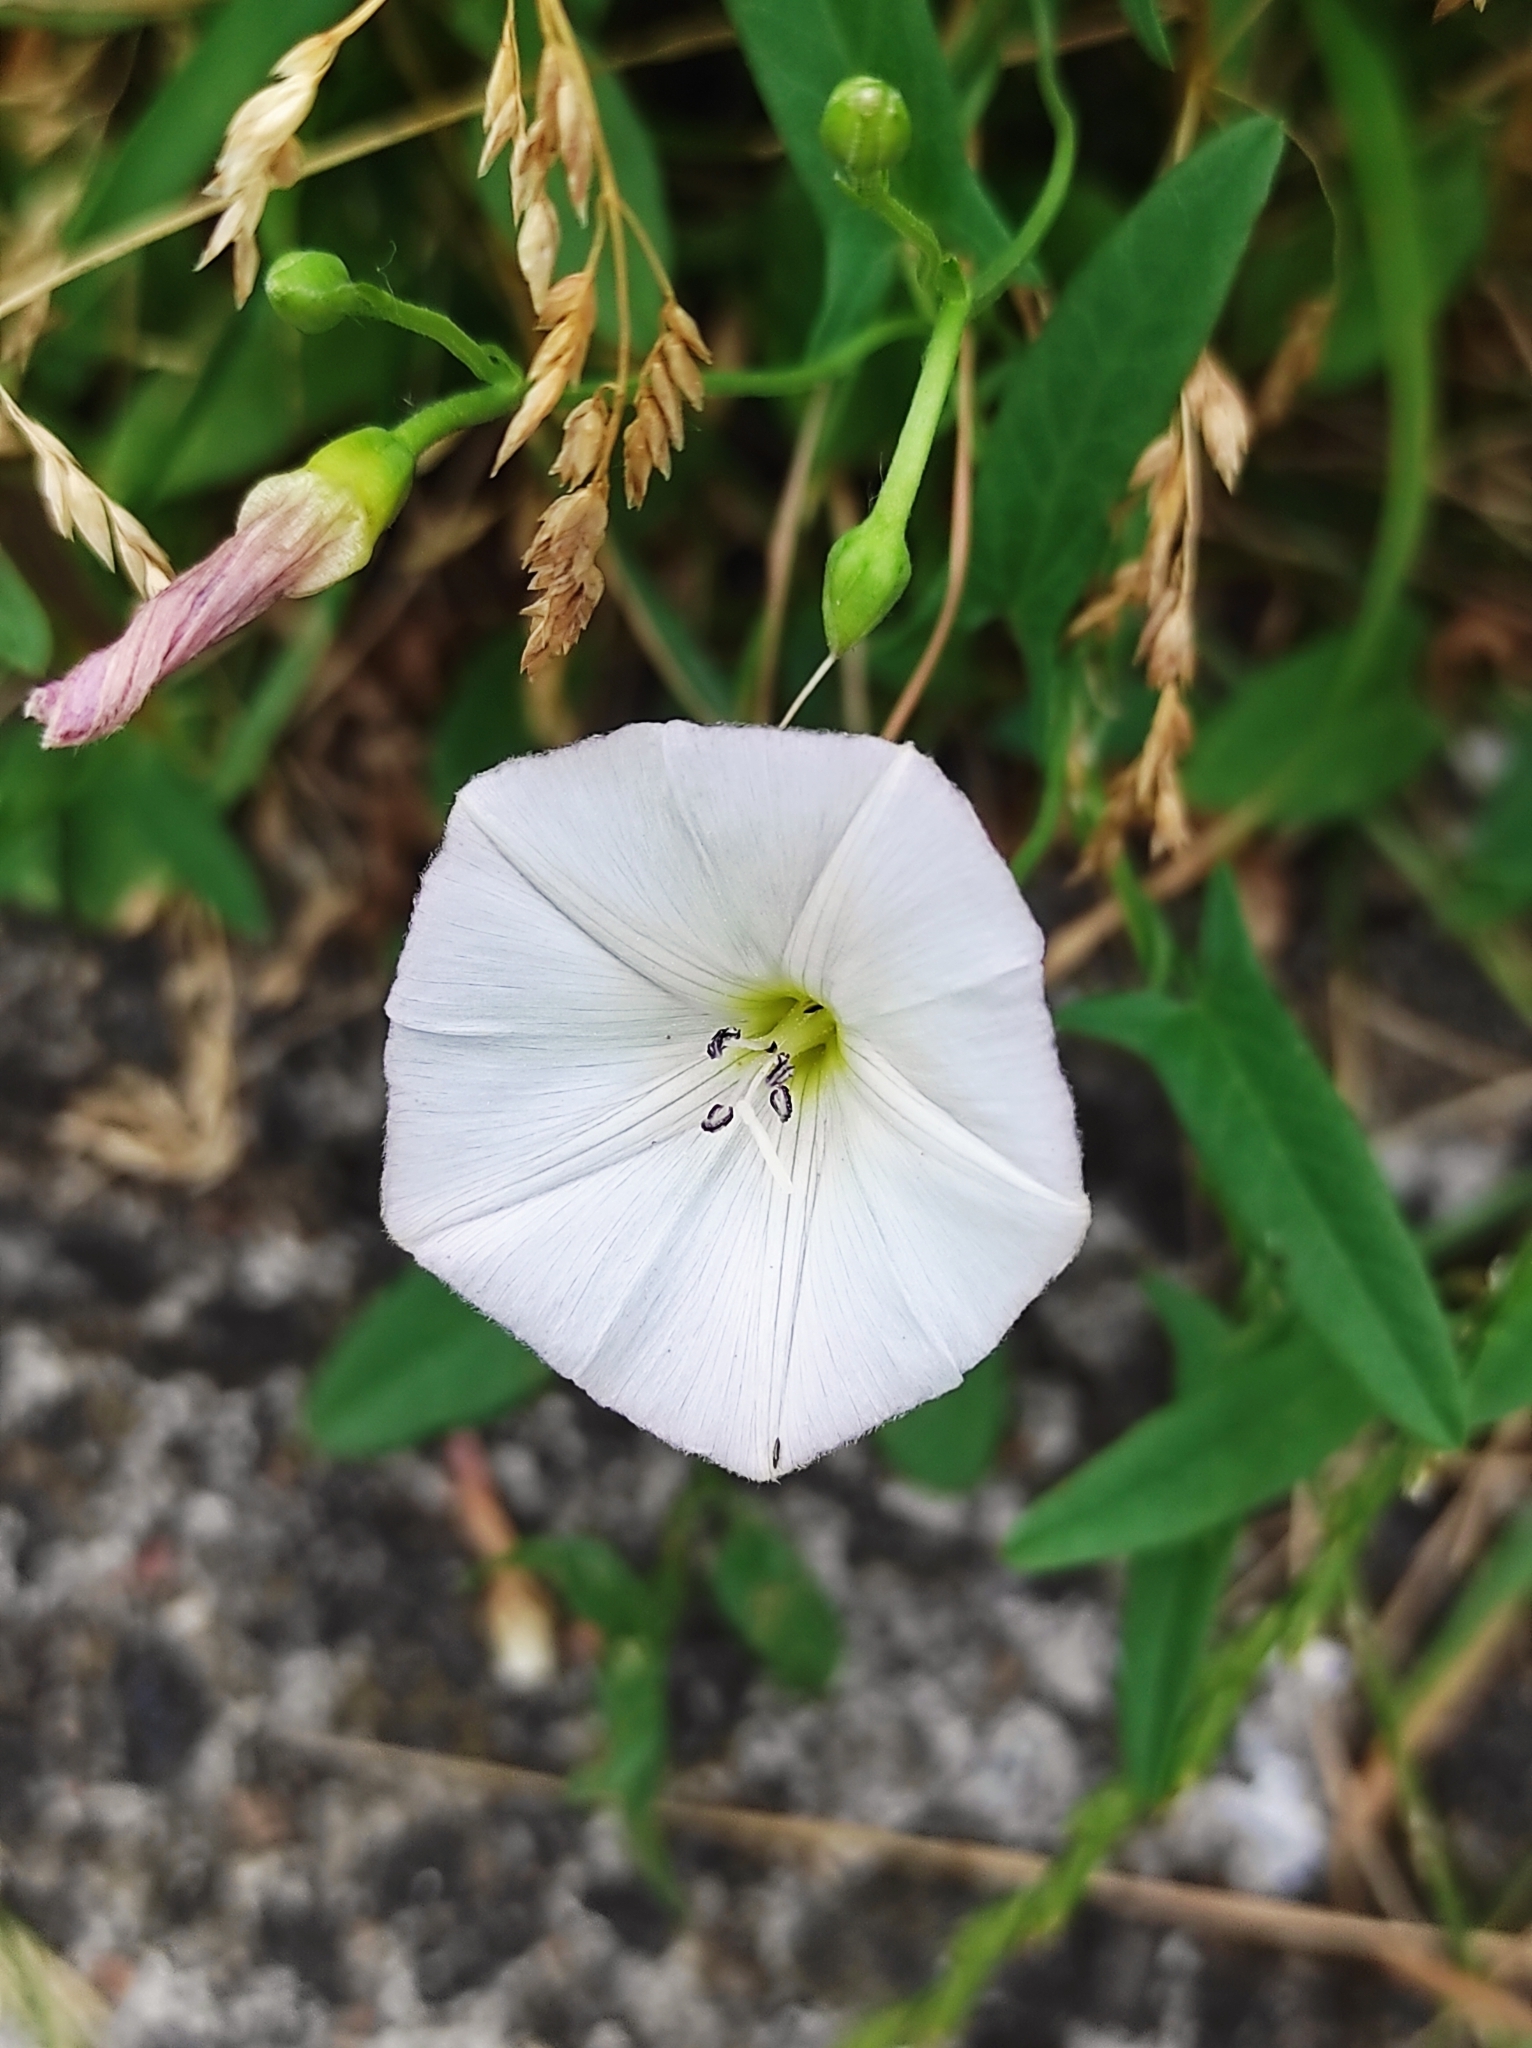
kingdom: Plantae
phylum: Tracheophyta
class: Magnoliopsida
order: Solanales
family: Convolvulaceae
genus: Convolvulus
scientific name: Convolvulus arvensis
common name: Field bindweed
